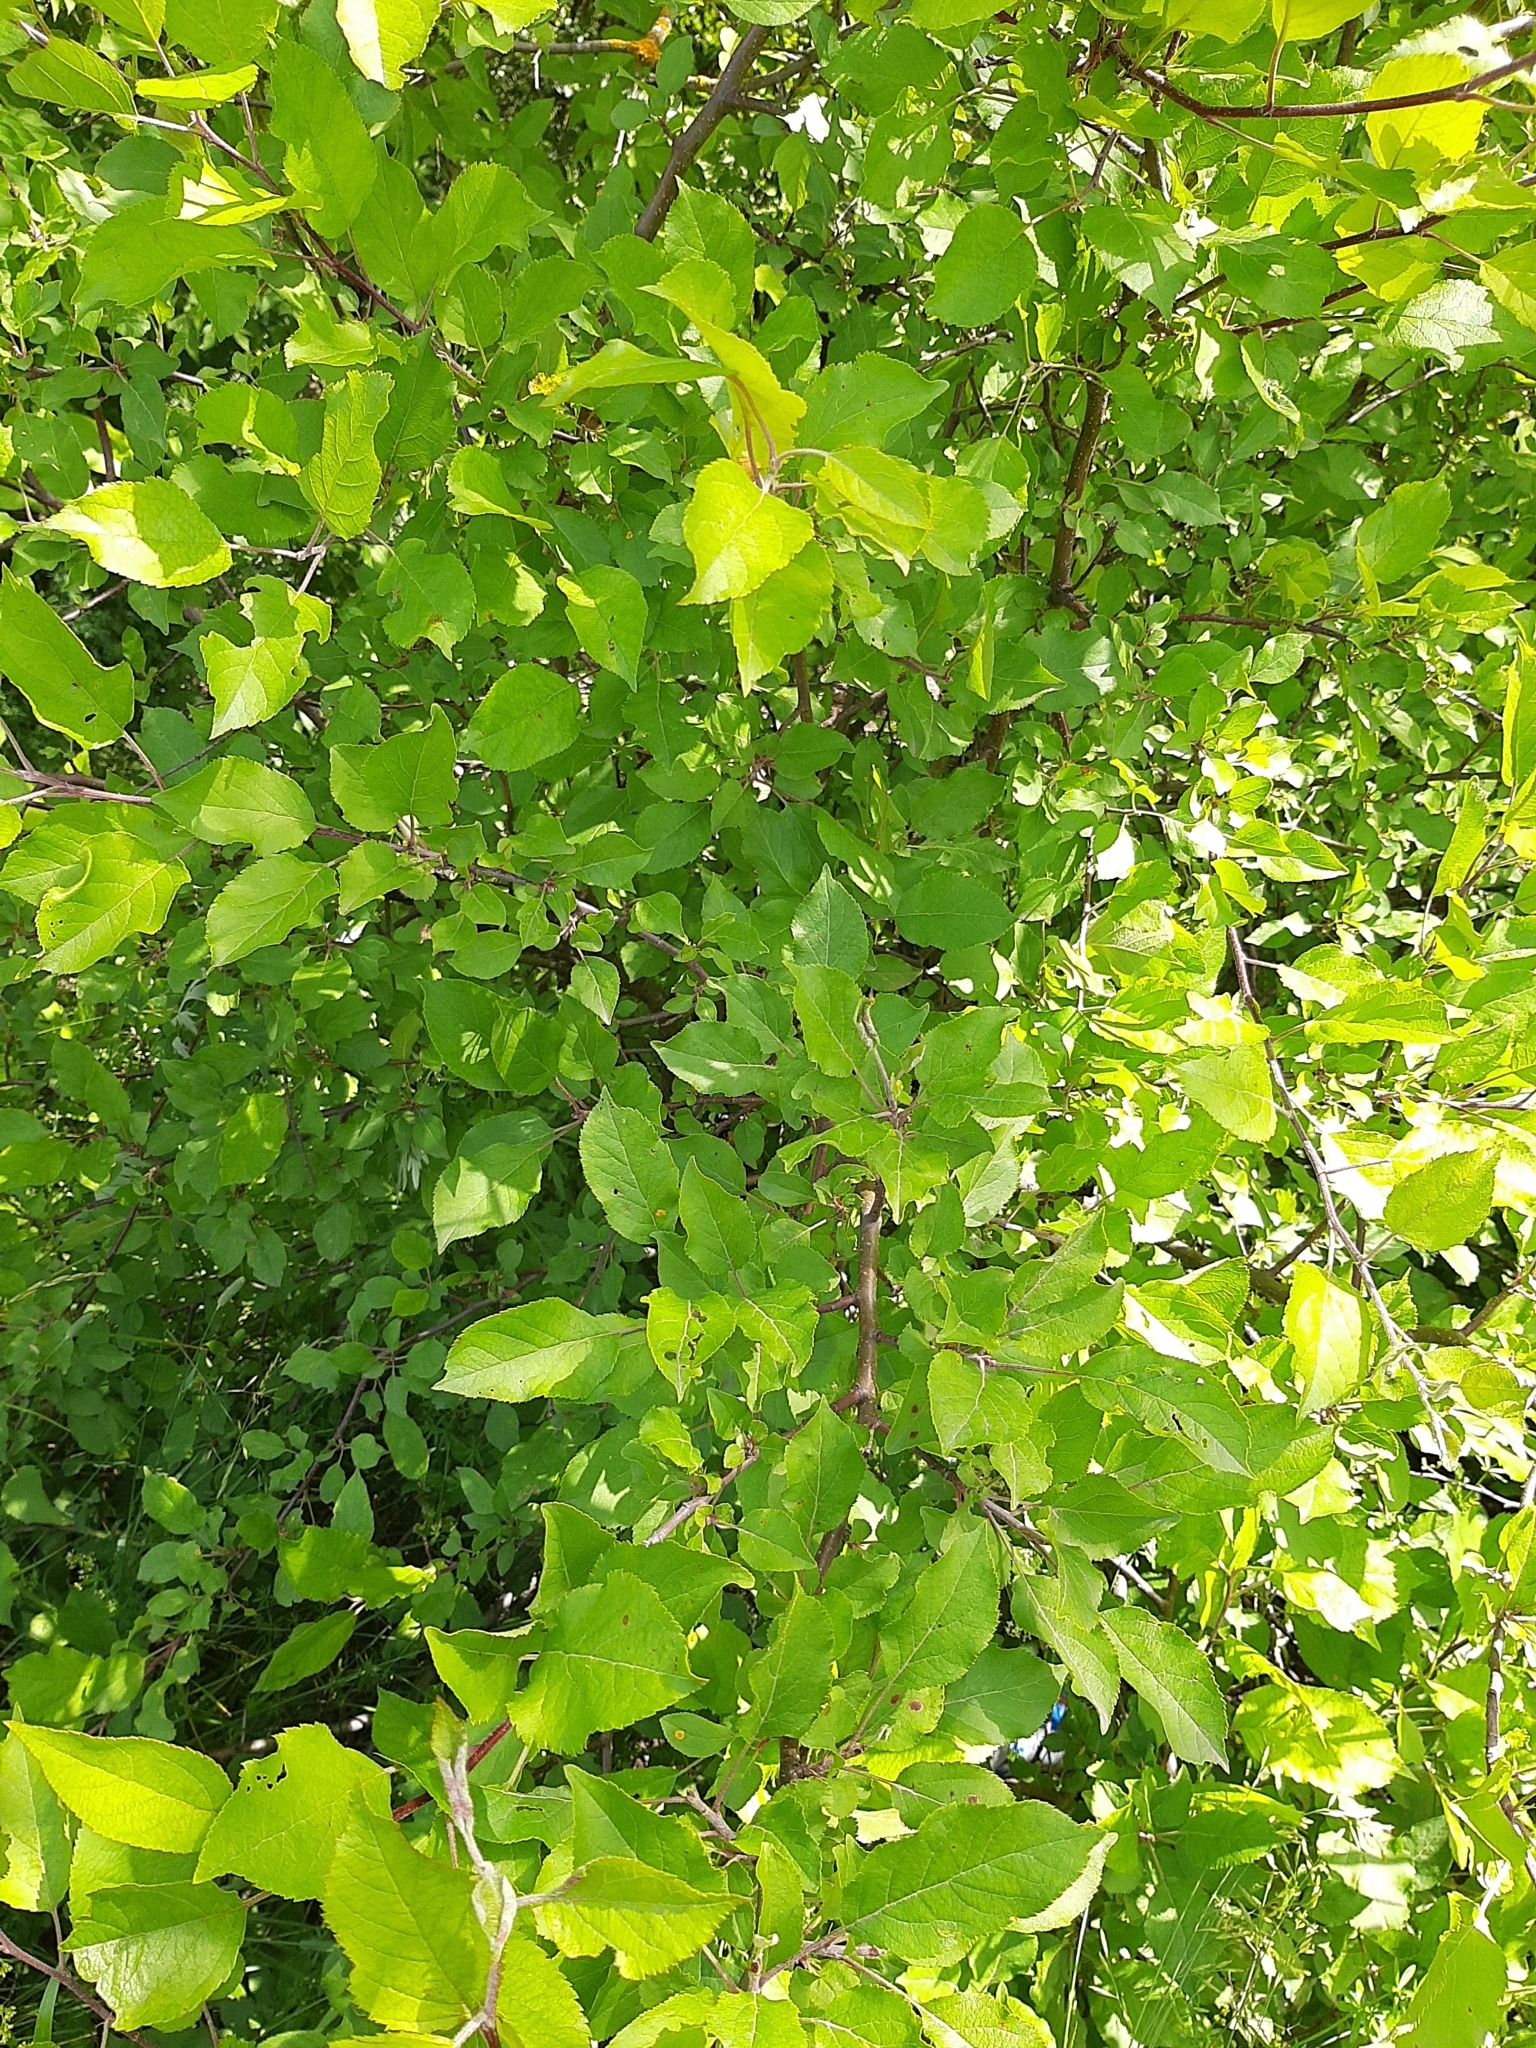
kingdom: Plantae
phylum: Tracheophyta
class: Magnoliopsida
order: Rosales
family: Rosaceae
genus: Malus
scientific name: Malus domestica
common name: Apple
